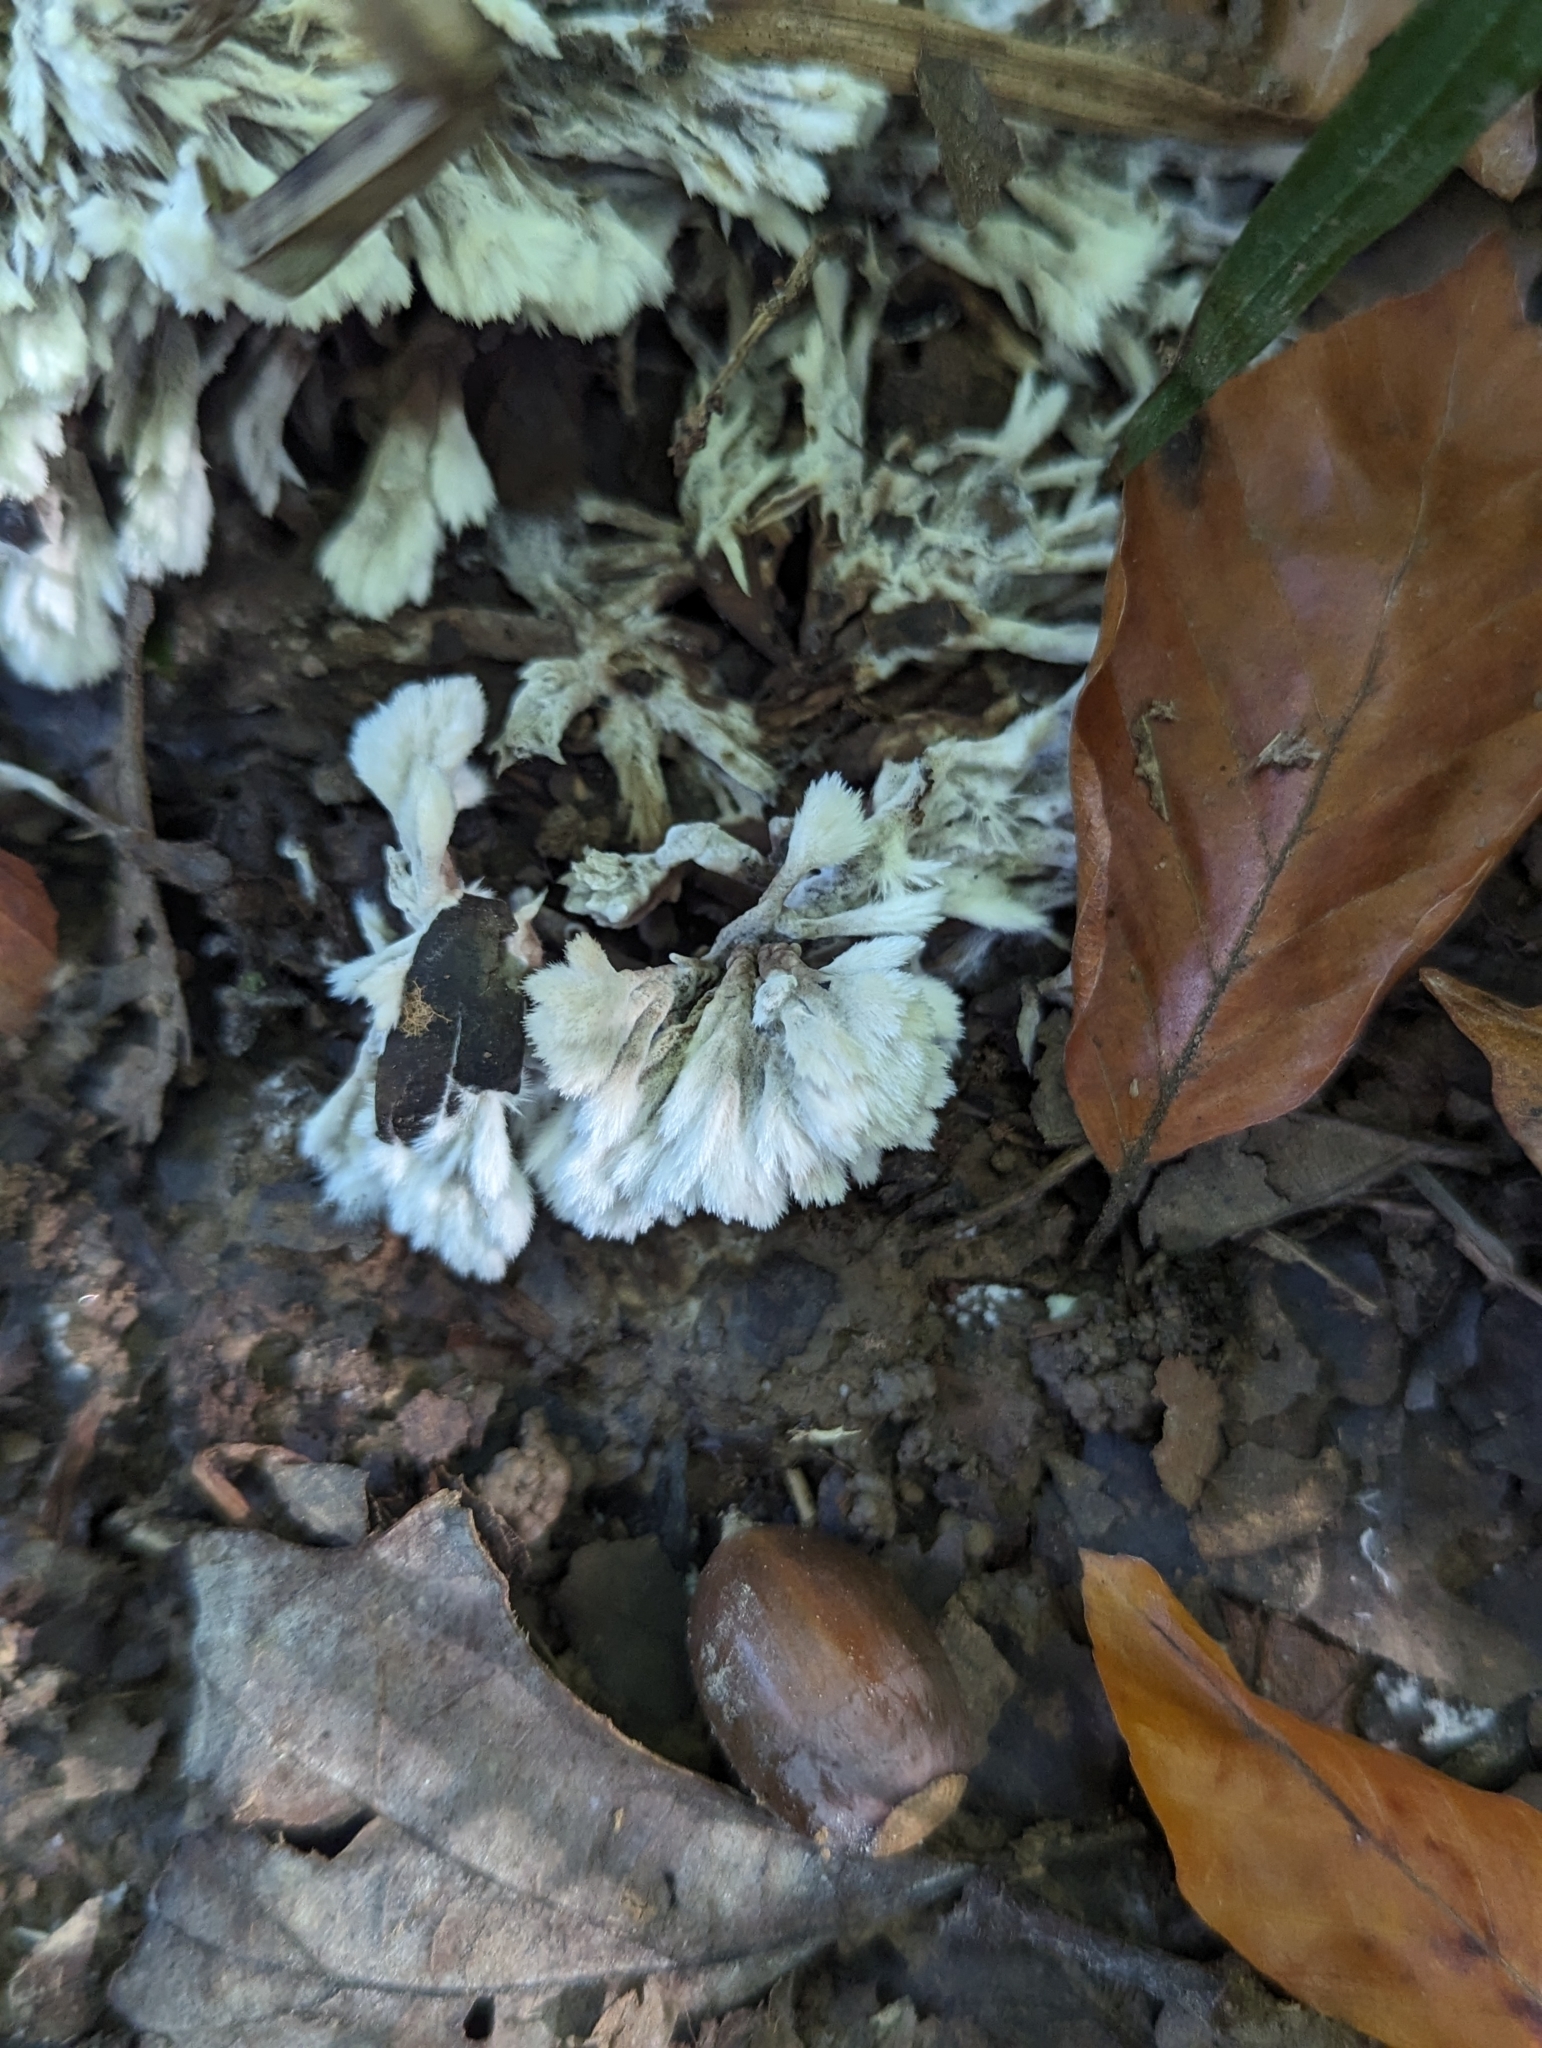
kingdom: Fungi
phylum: Basidiomycota
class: Agaricomycetes
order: Thelephorales
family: Thelephoraceae
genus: Thelephora
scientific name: Thelephora penicillata
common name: Urchin earthfan
